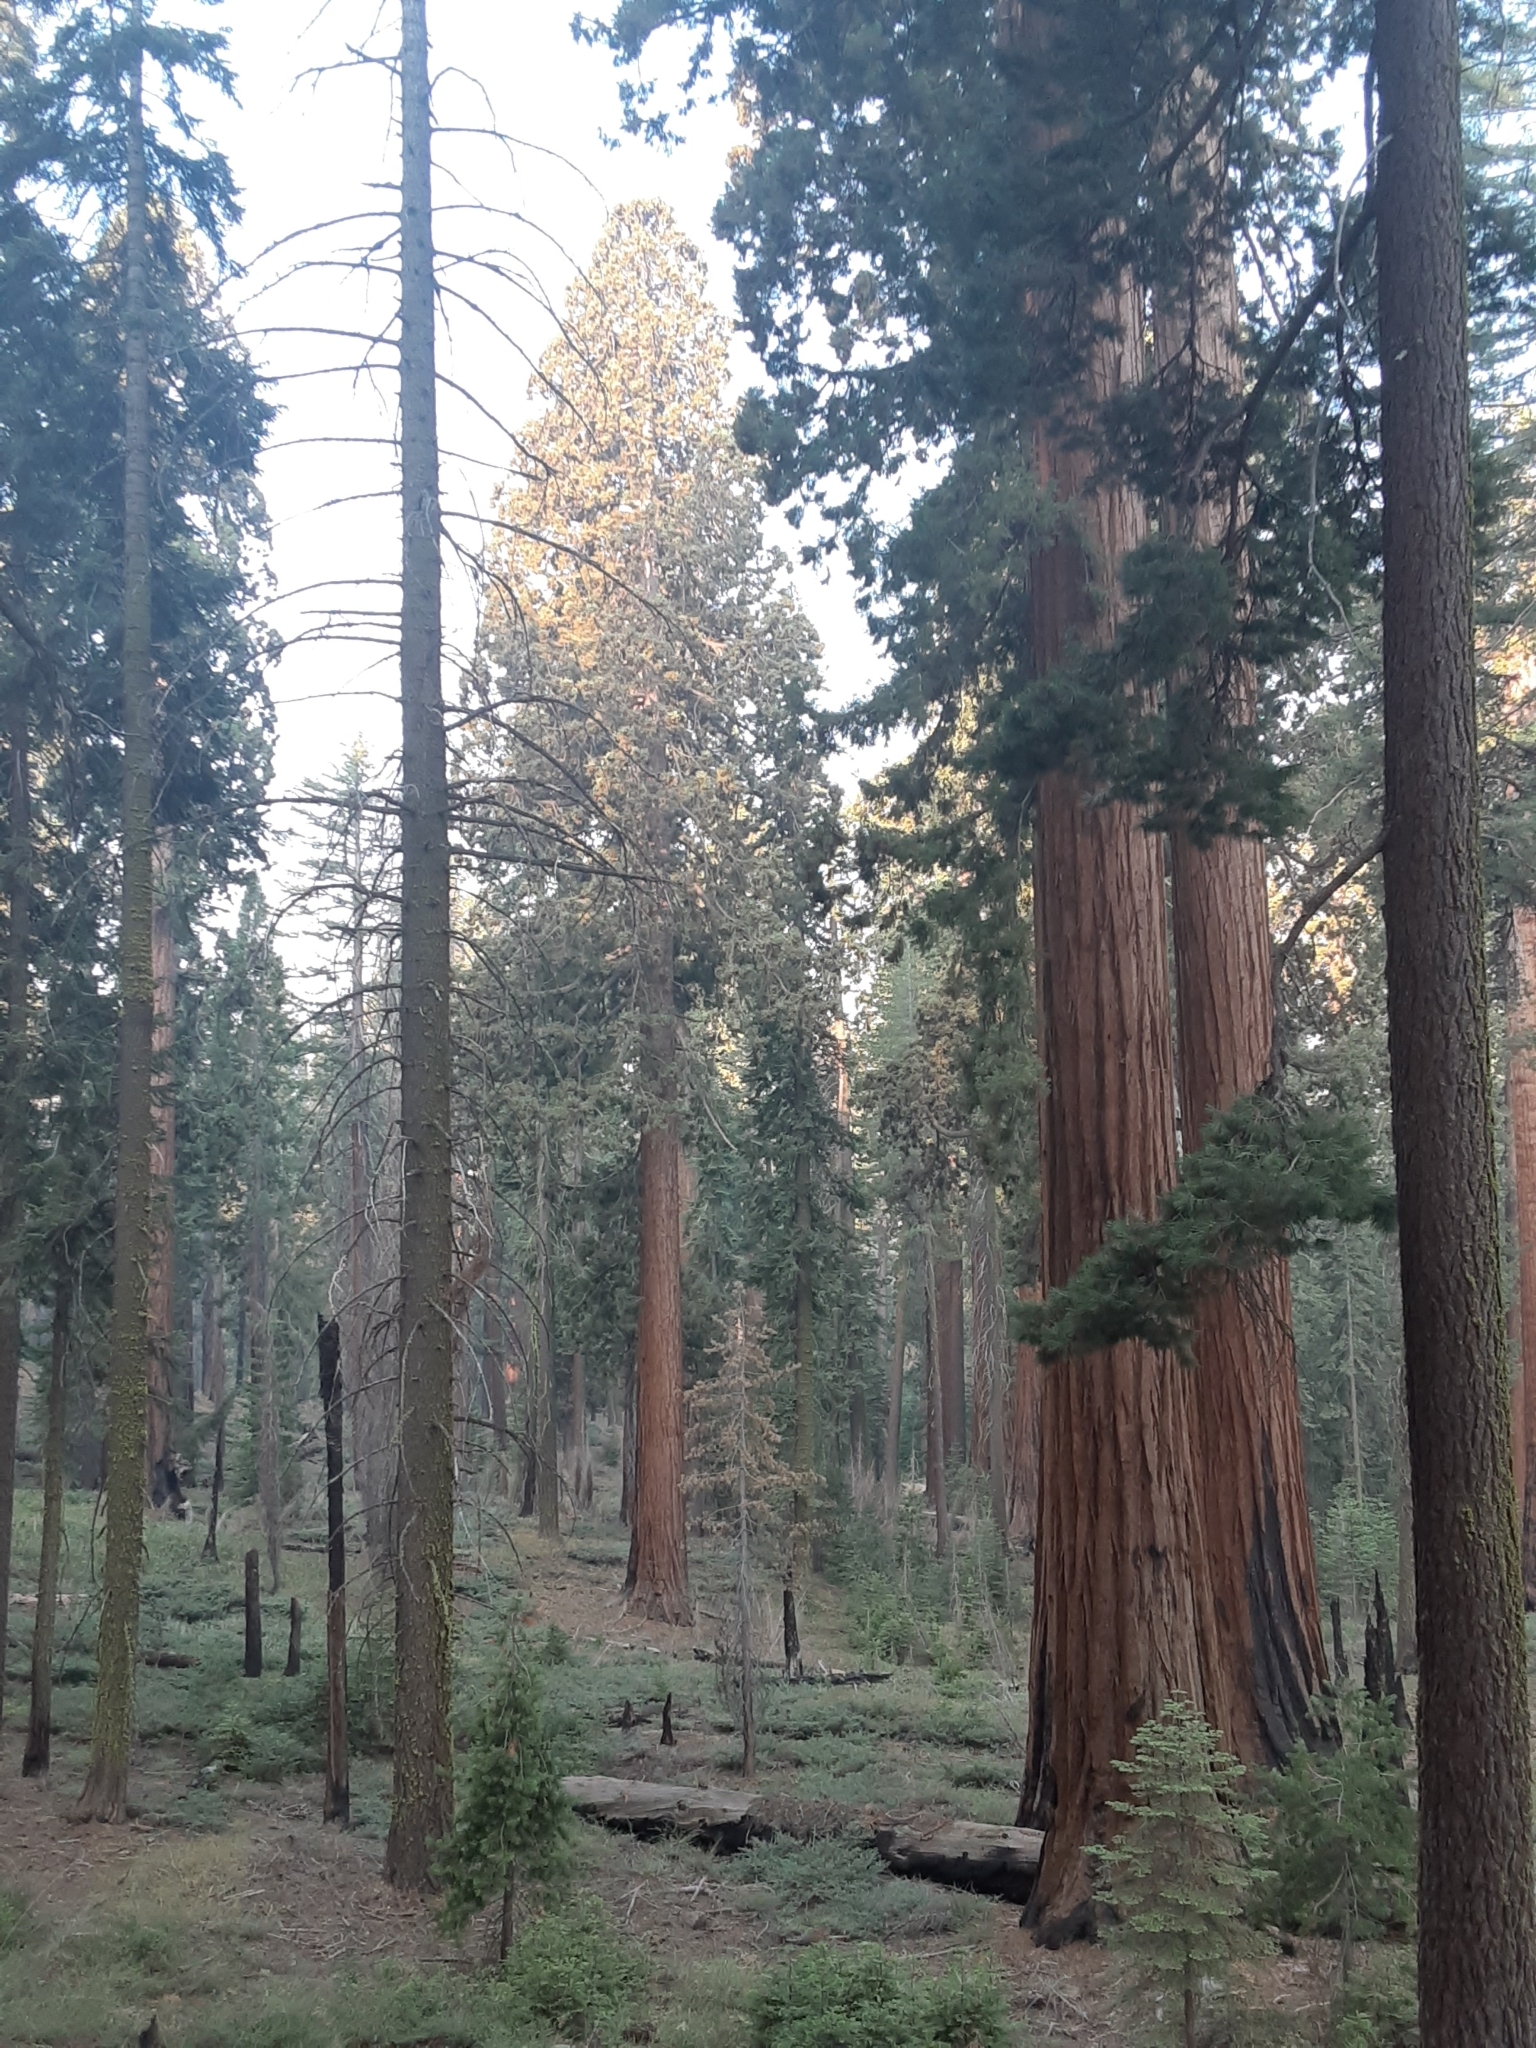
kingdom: Plantae
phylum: Tracheophyta
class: Pinopsida
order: Pinales
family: Cupressaceae
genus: Sequoiadendron
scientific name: Sequoiadendron giganteum
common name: Wellingtonia
